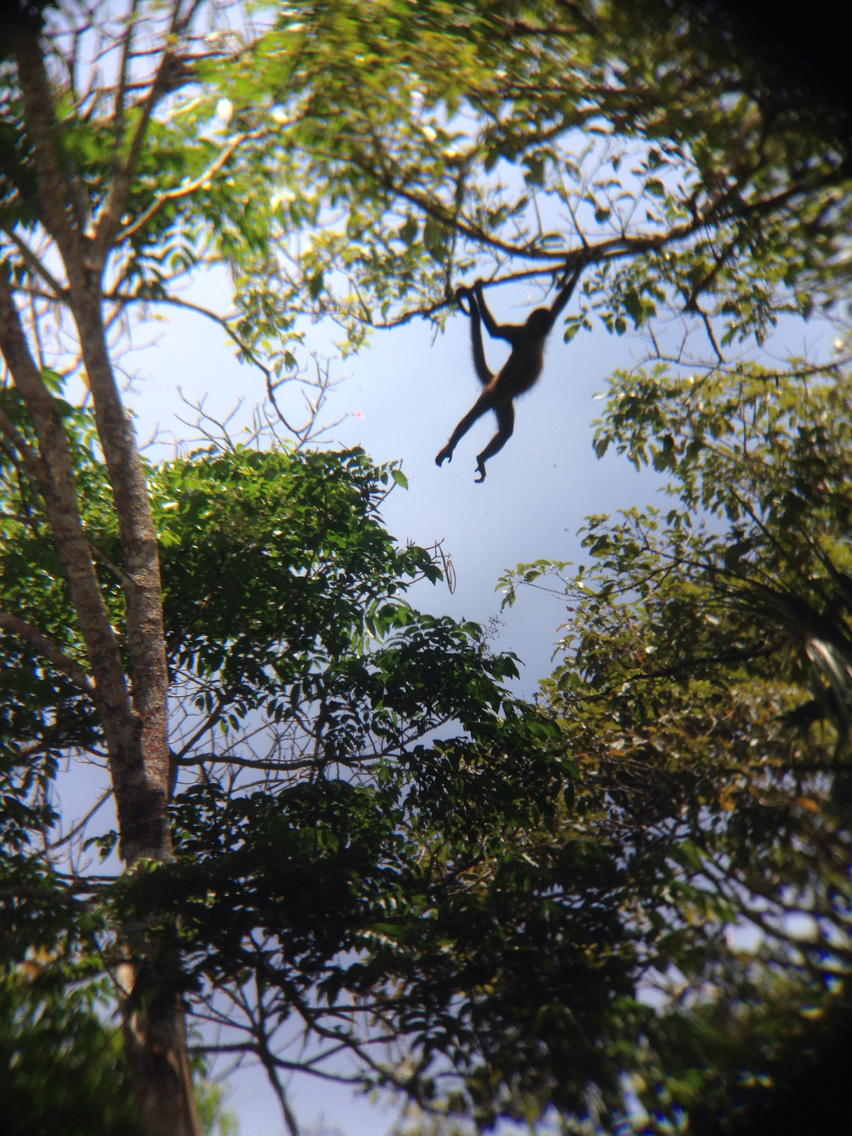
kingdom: Animalia
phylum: Chordata
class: Mammalia
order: Primates
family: Atelidae
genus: Ateles
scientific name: Ateles geoffroyi
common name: Black-handed spider monkey
